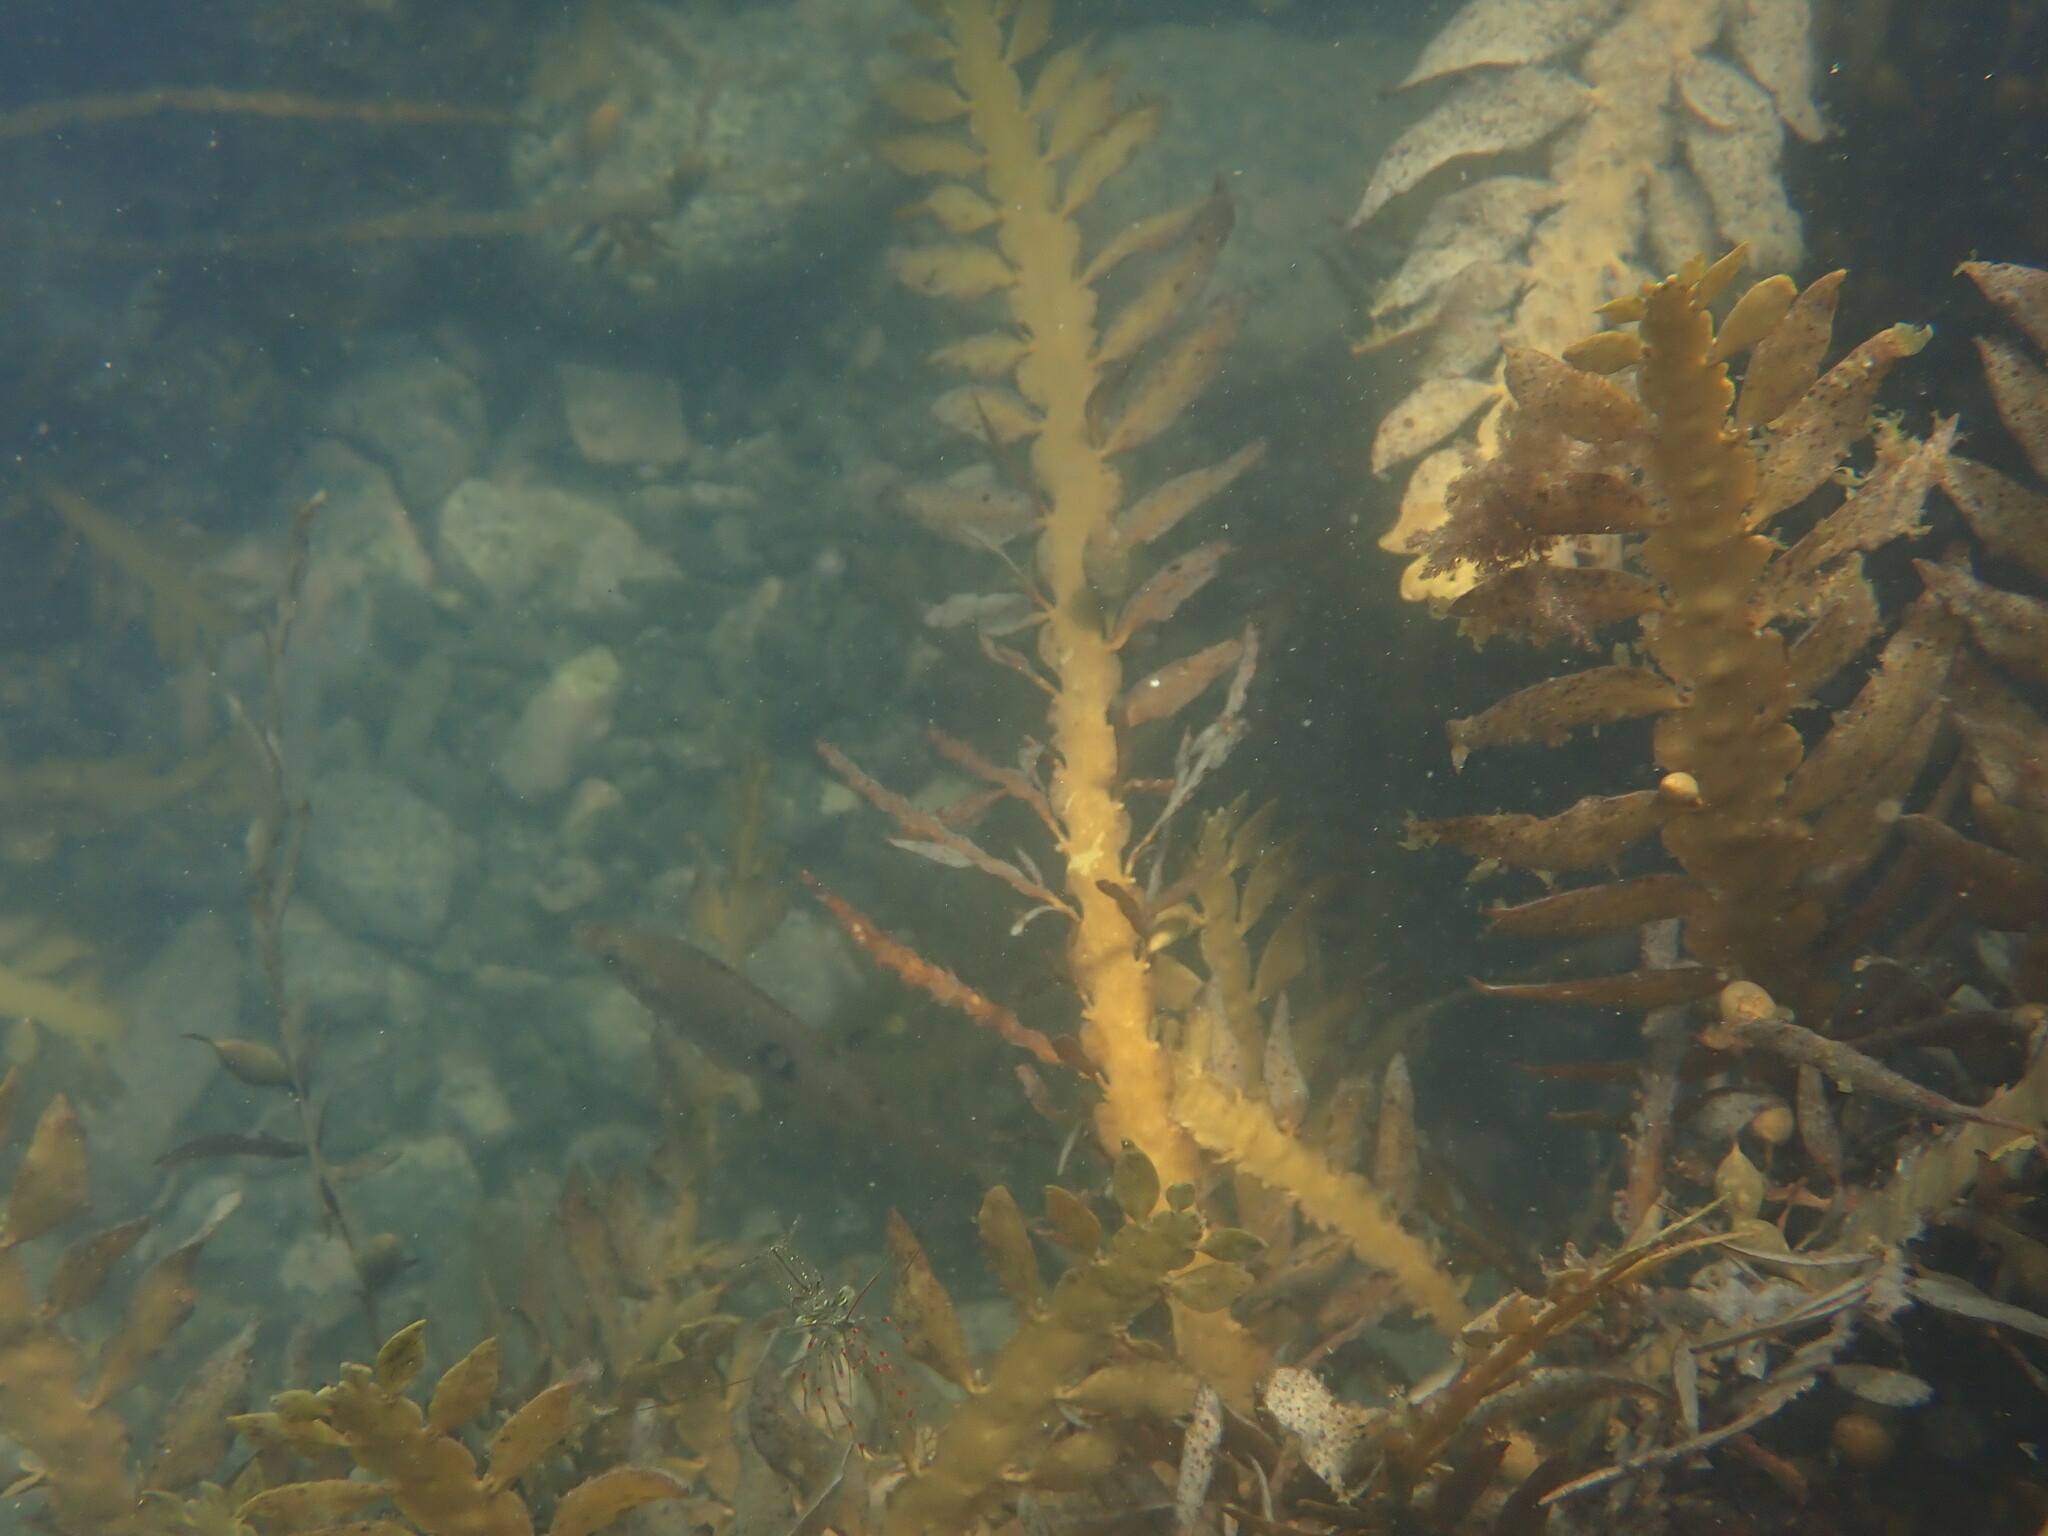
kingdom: Chromista
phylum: Ochrophyta
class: Phaeophyceae
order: Fucales
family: Sargassaceae
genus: Carpophyllum
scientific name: Carpophyllum maschalocarpum
